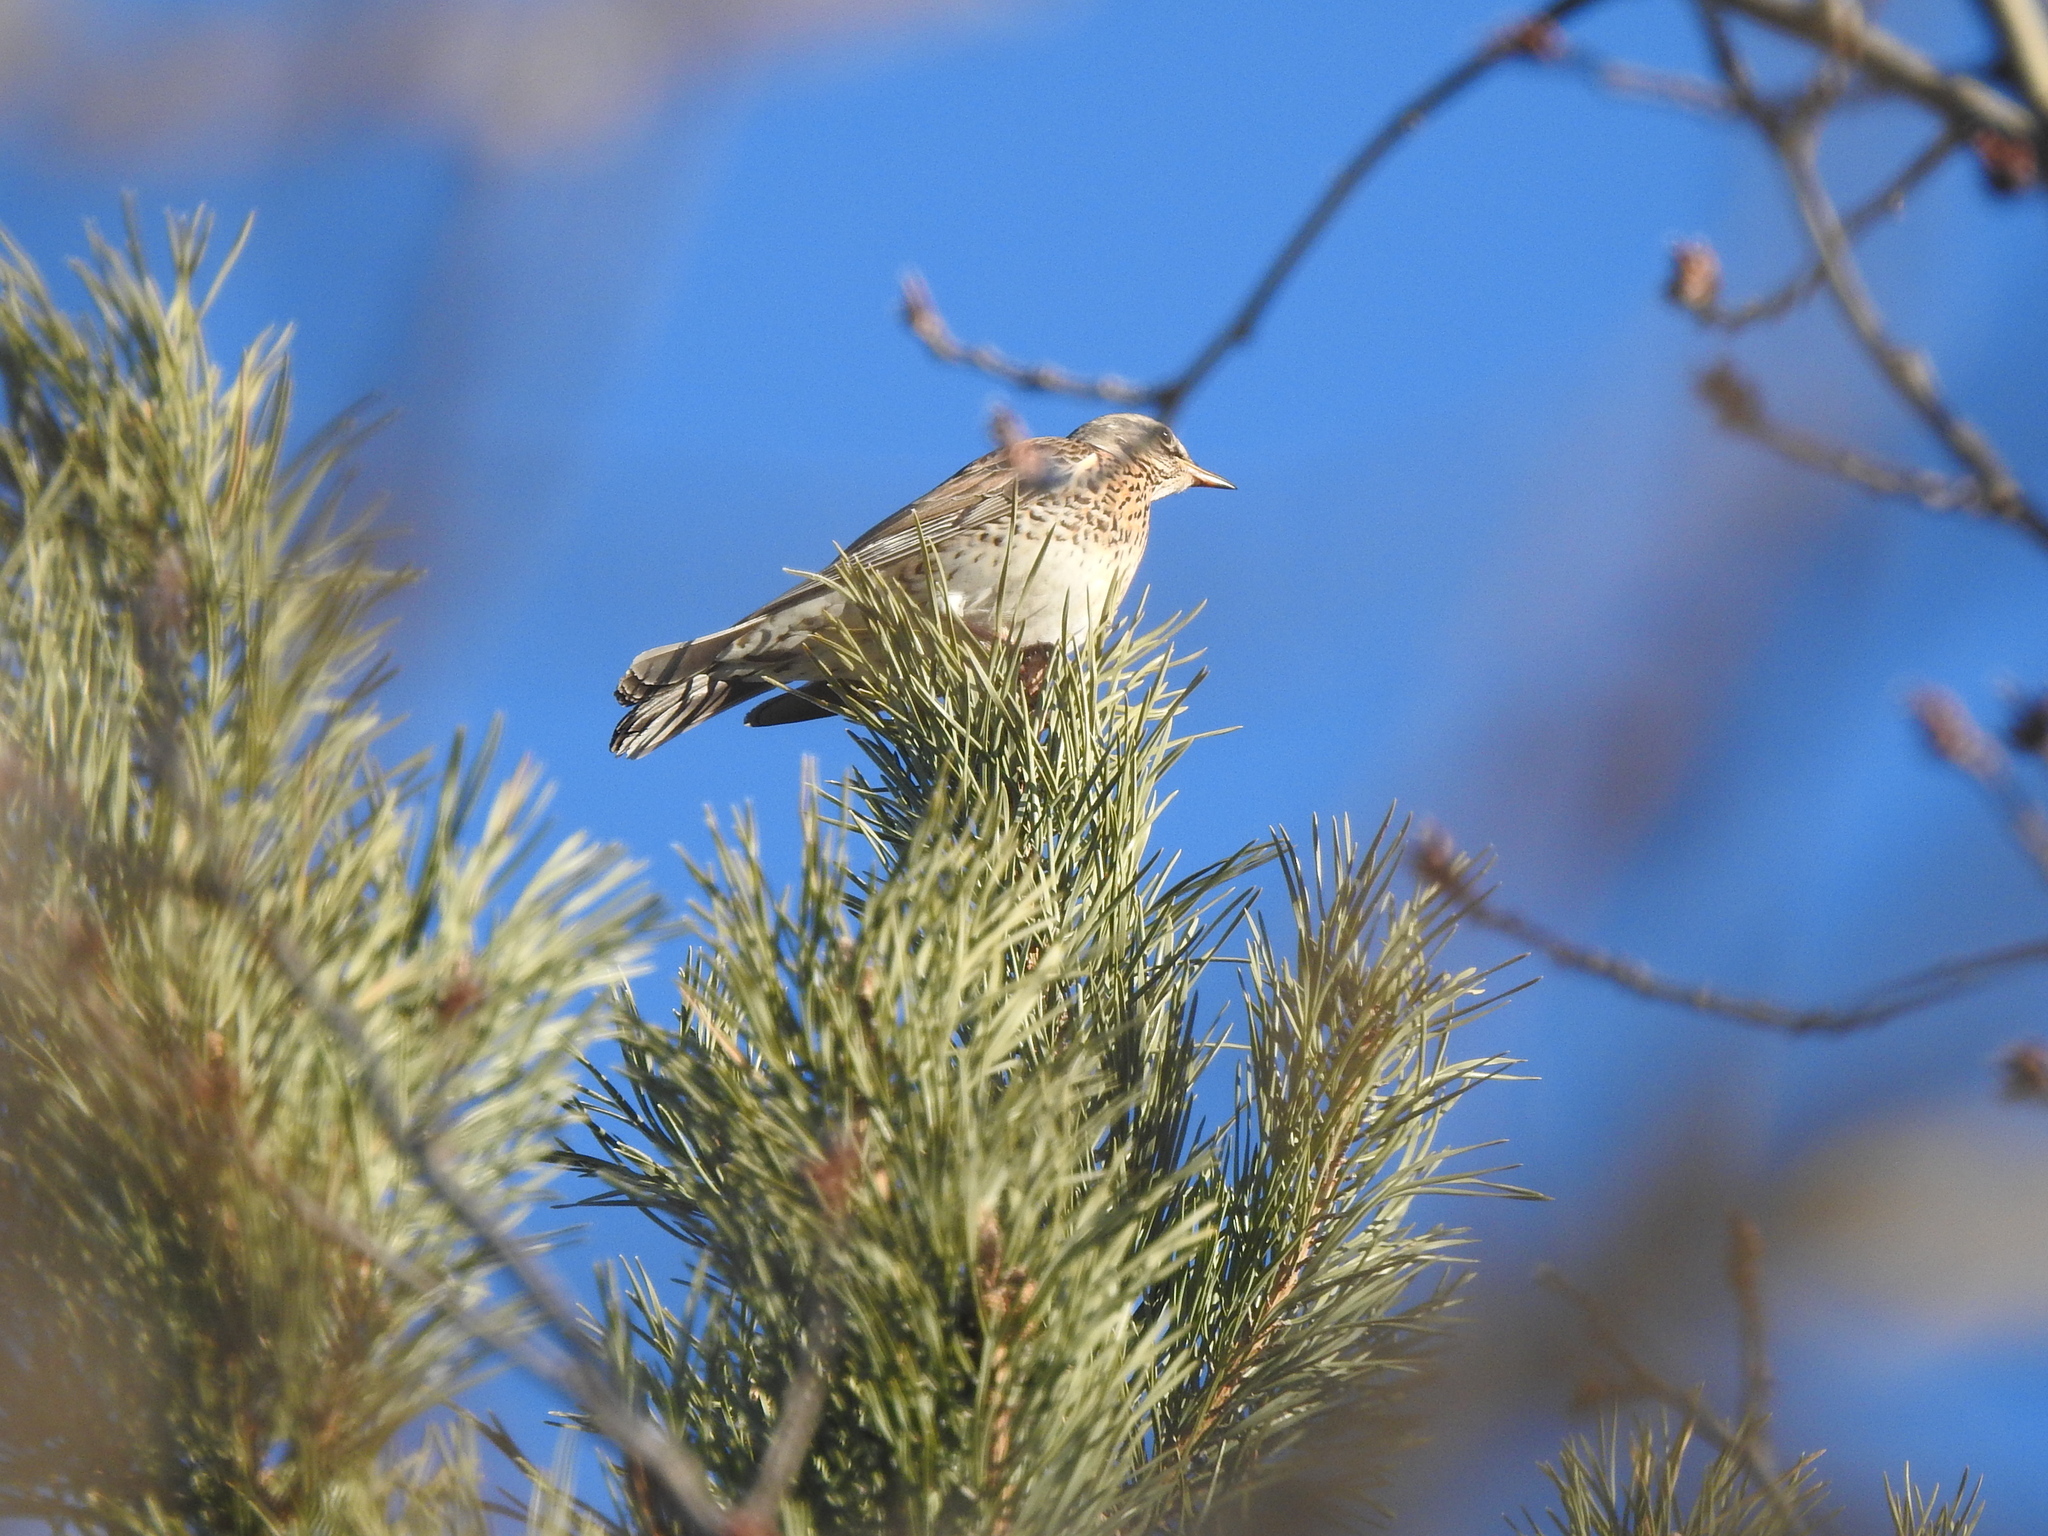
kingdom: Animalia
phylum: Chordata
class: Aves
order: Passeriformes
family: Turdidae
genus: Turdus
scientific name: Turdus pilaris
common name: Fieldfare
